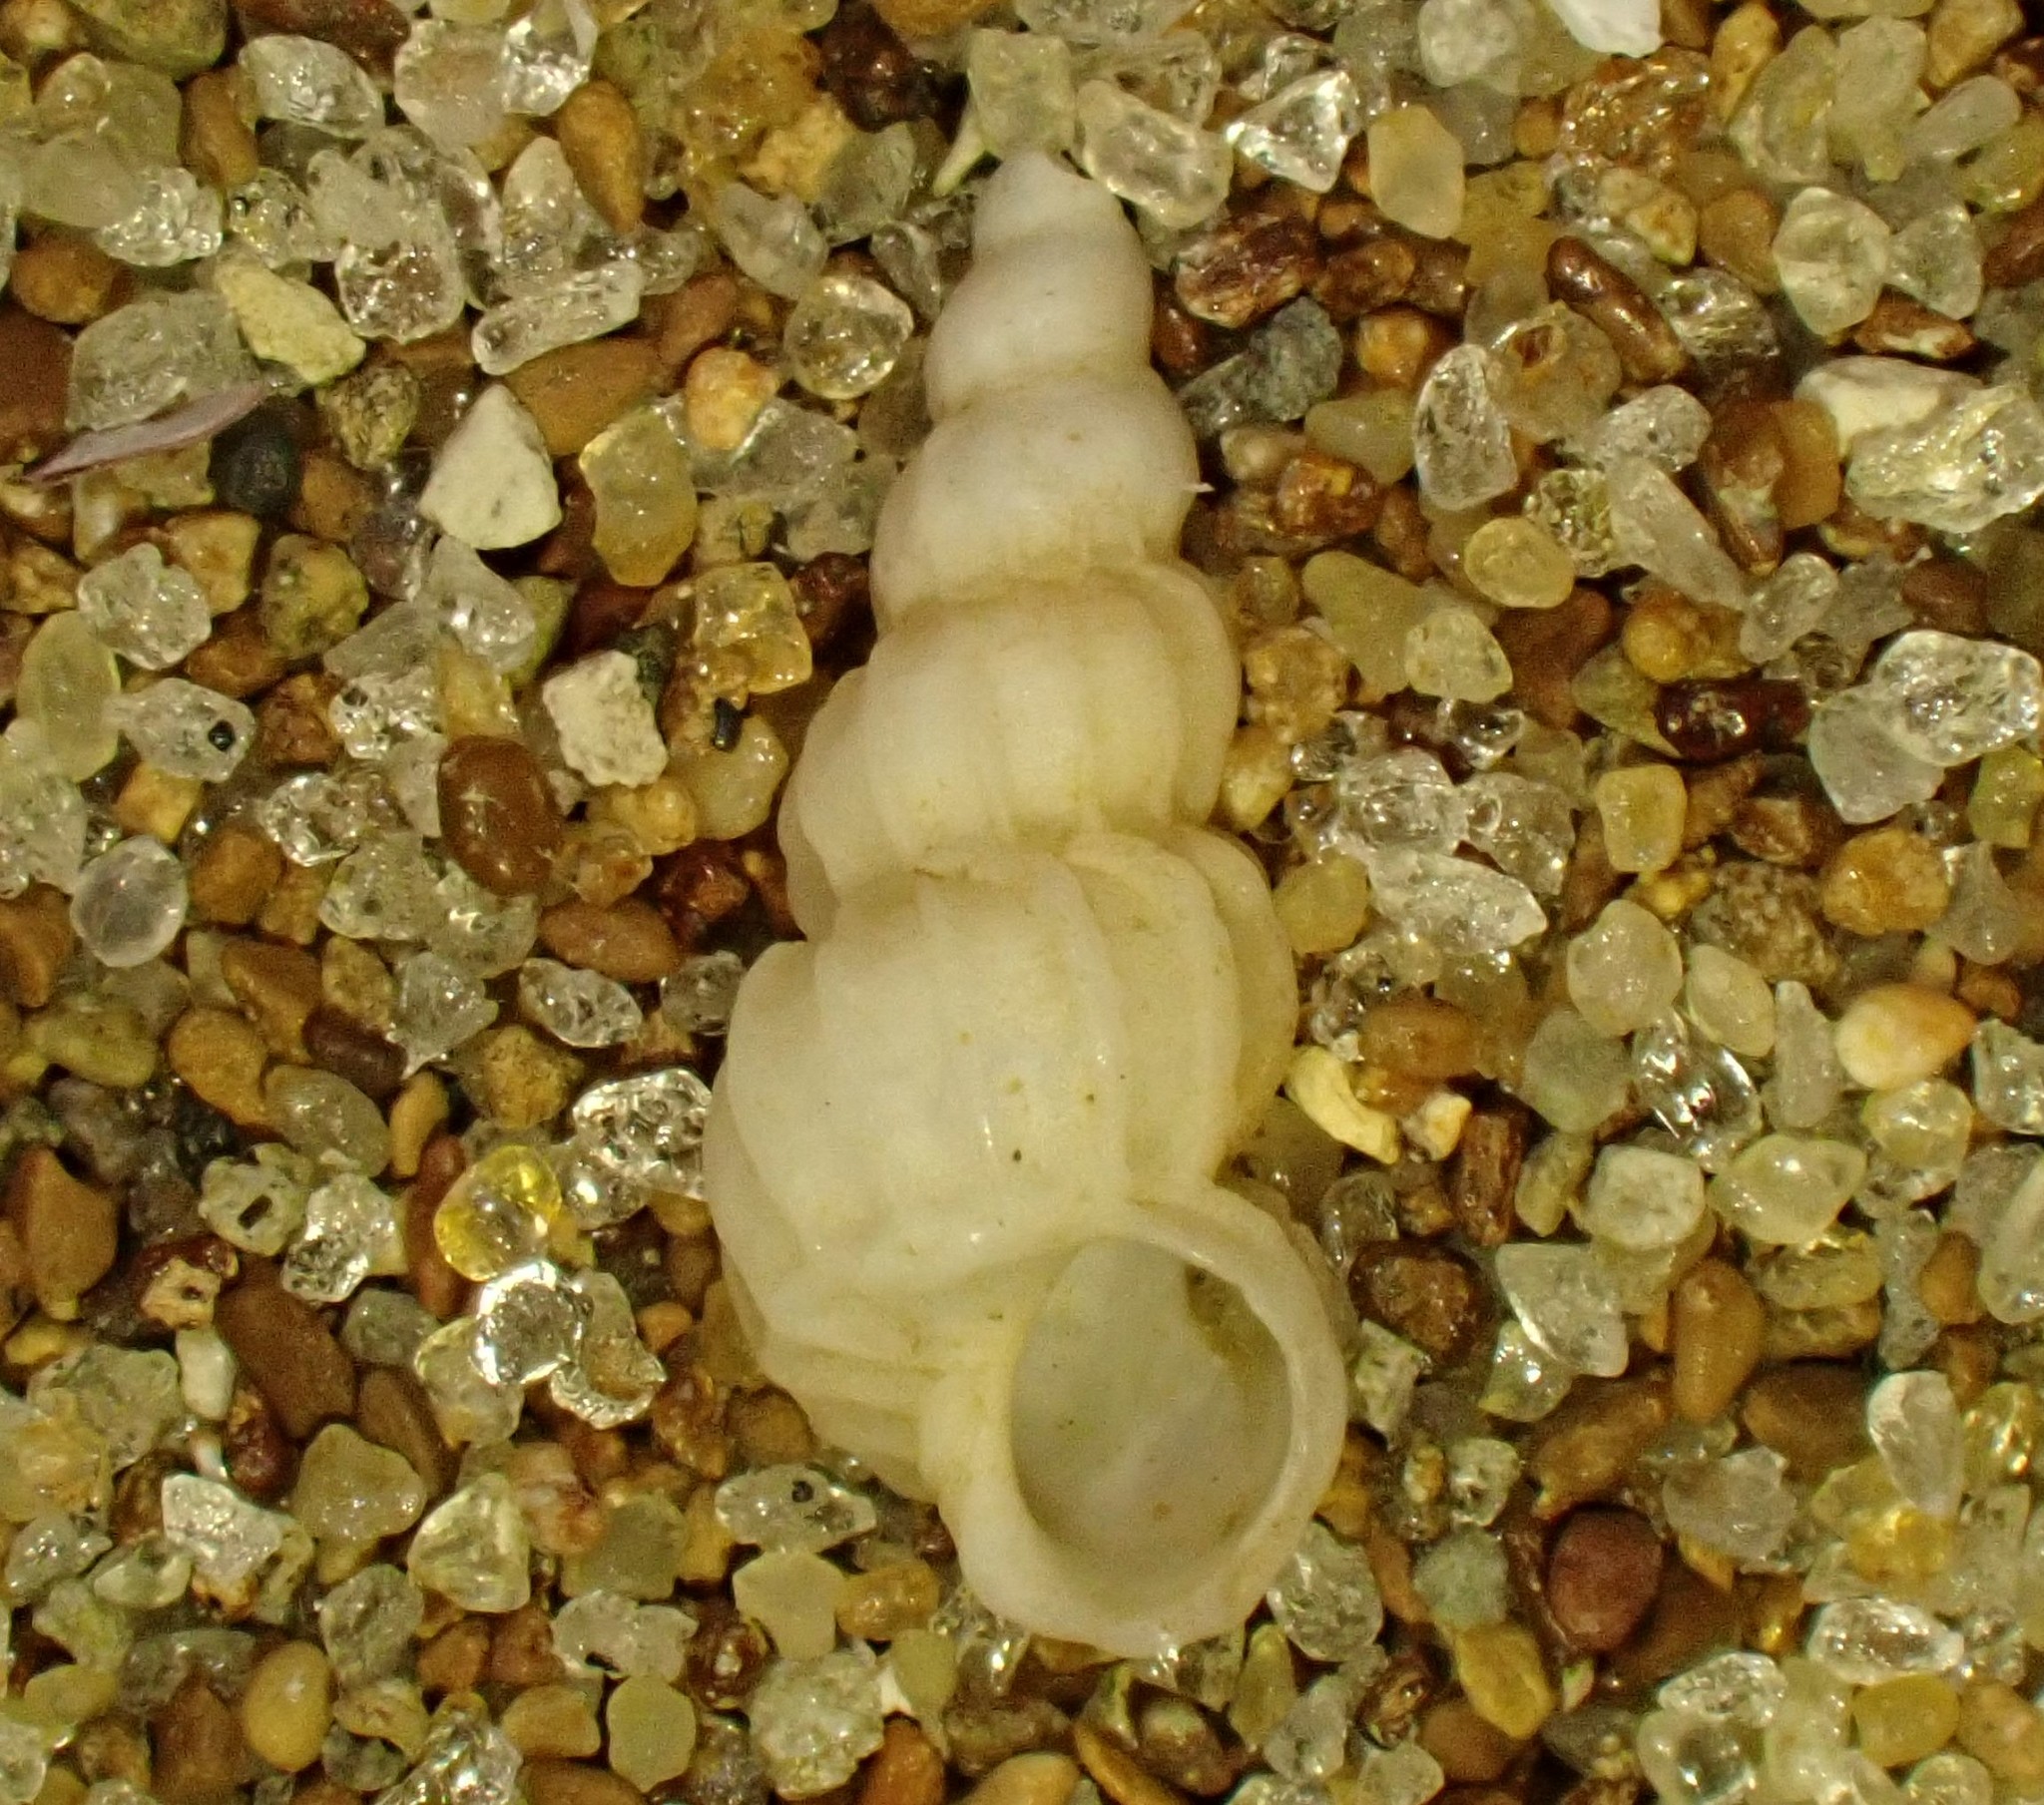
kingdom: Animalia
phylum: Mollusca
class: Gastropoda
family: Epitoniidae
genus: Cirsotrema
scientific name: Cirsotrema zelebori
